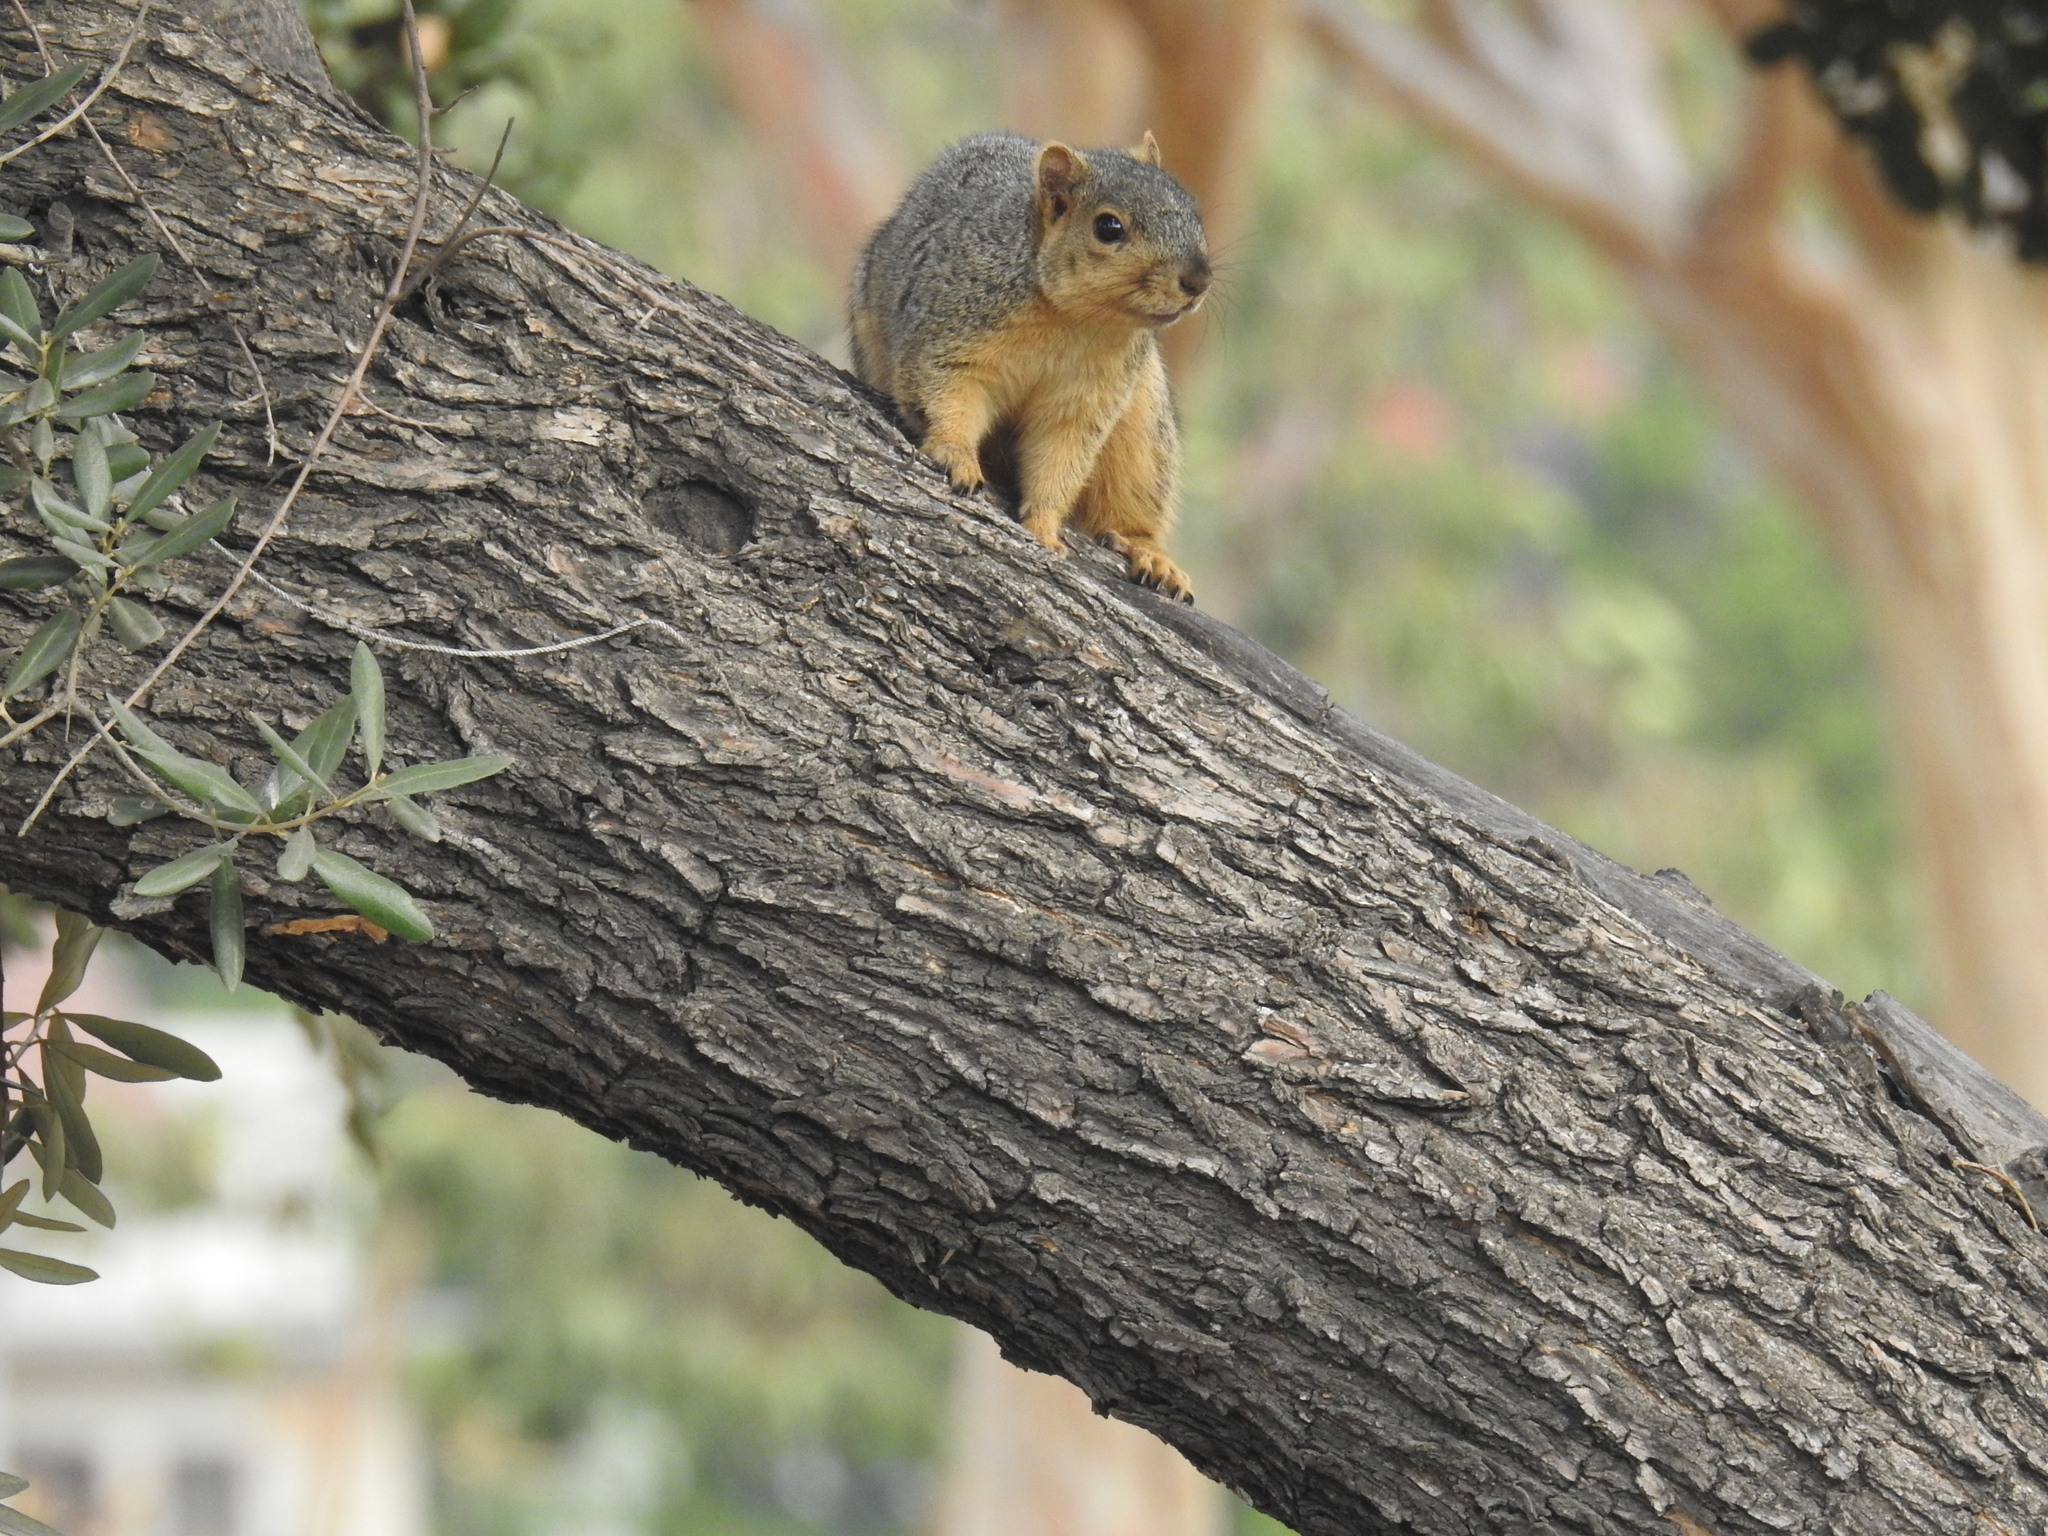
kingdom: Animalia
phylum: Chordata
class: Mammalia
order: Rodentia
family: Sciuridae
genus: Sciurus
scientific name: Sciurus niger
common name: Fox squirrel
